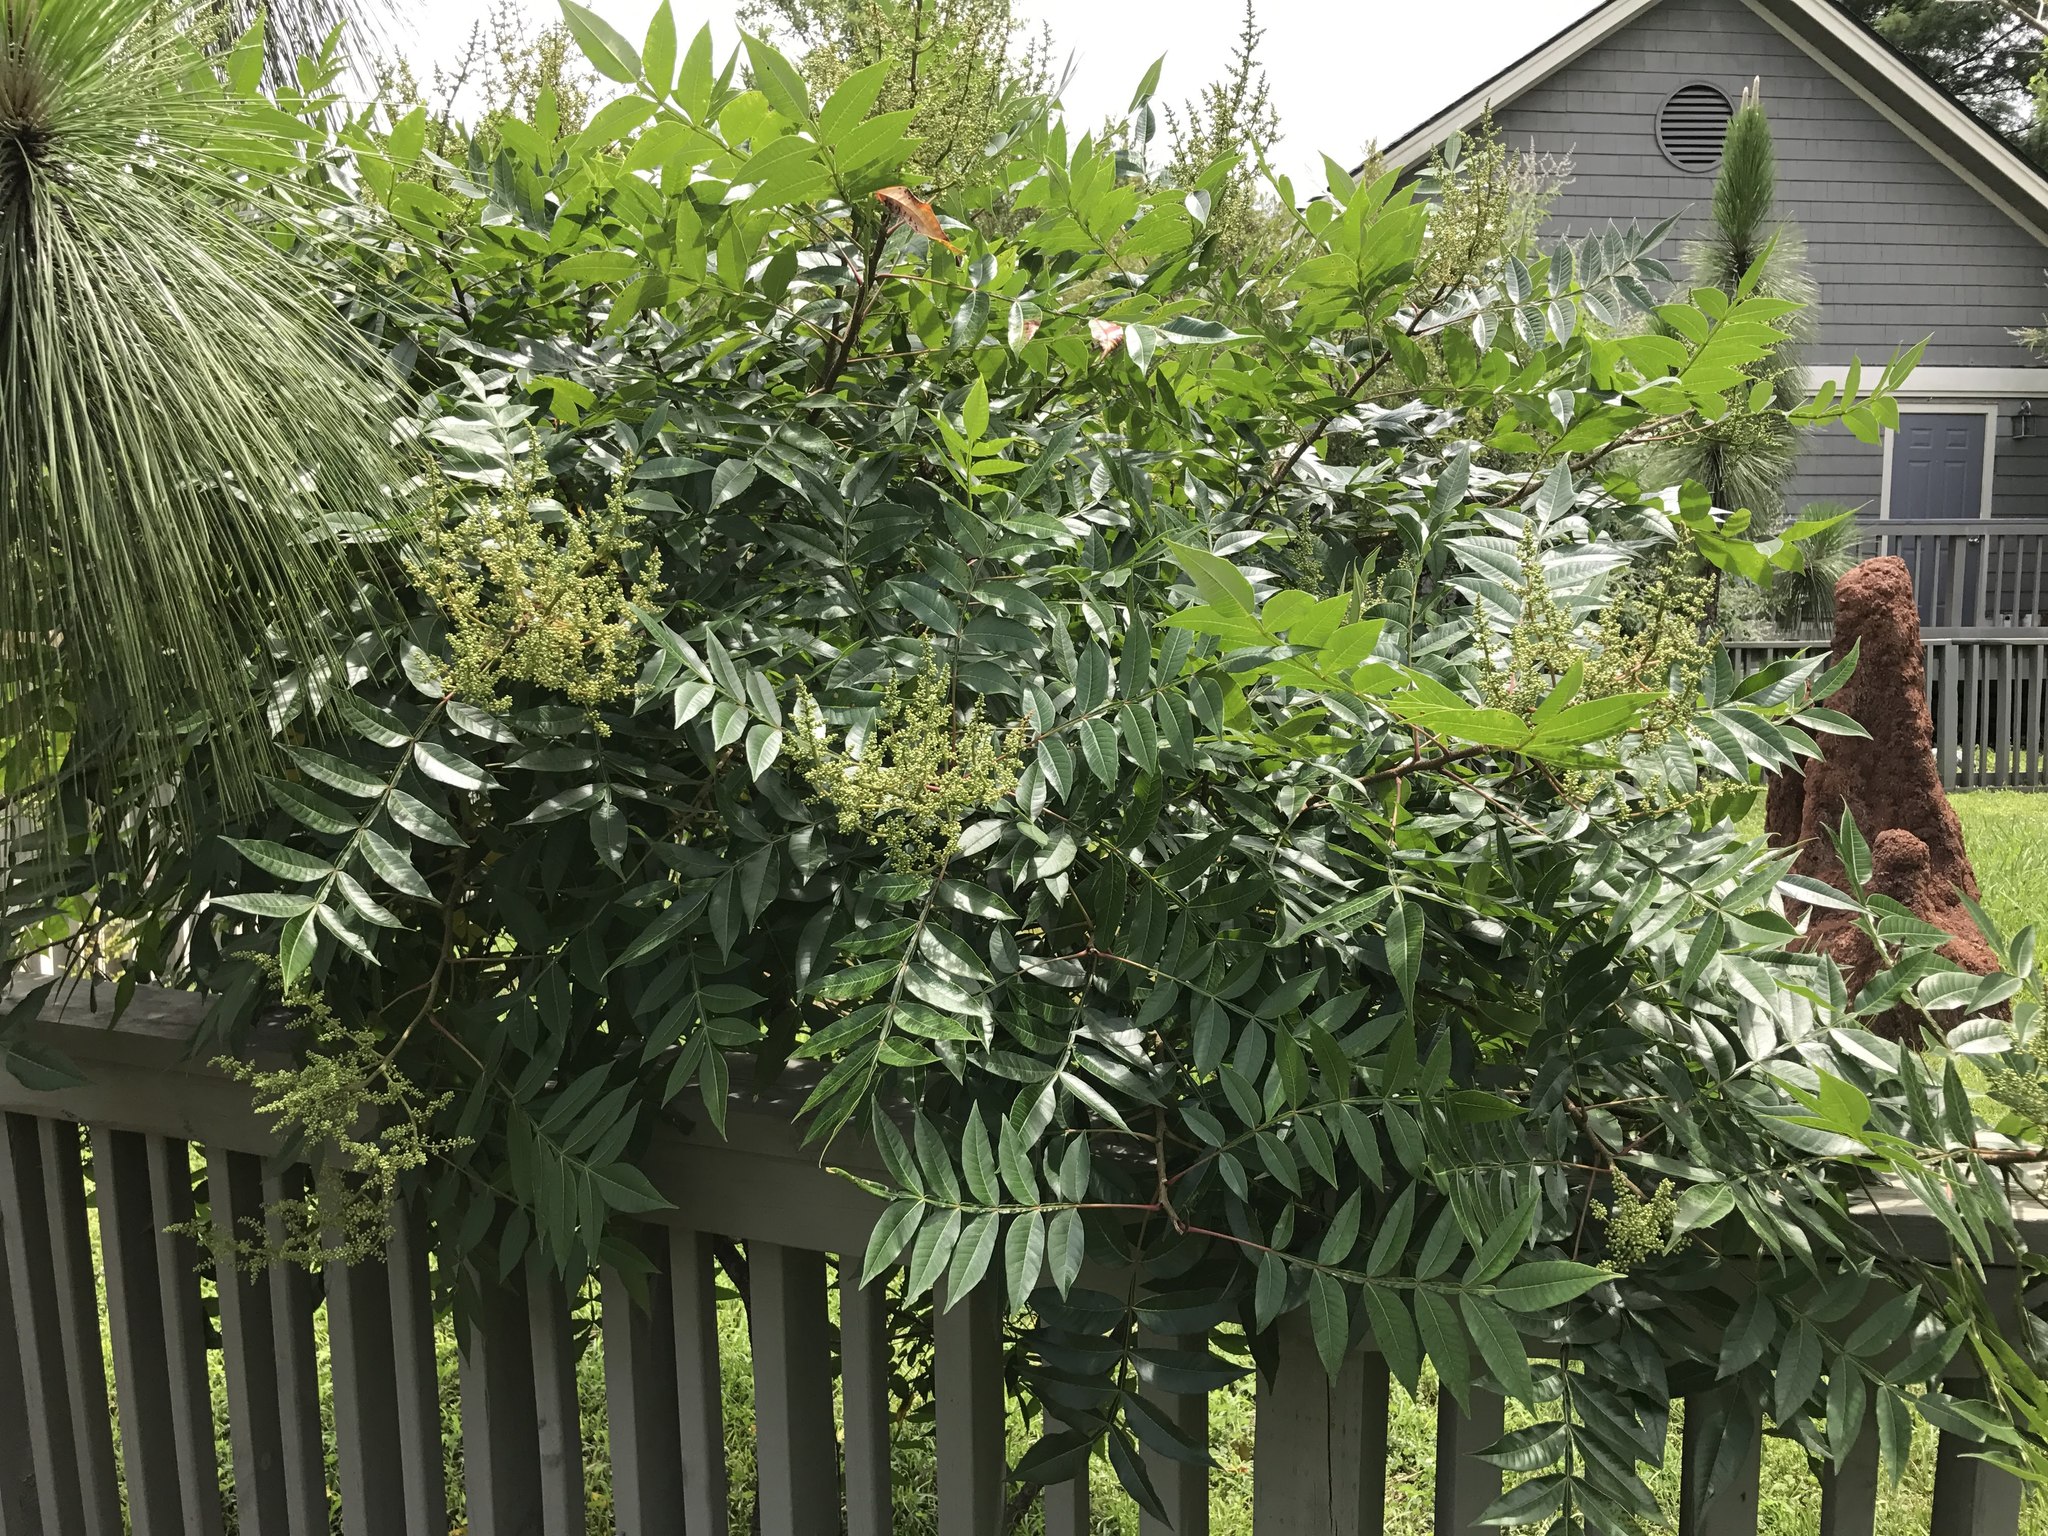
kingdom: Plantae
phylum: Tracheophyta
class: Magnoliopsida
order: Sapindales
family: Anacardiaceae
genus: Rhus
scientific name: Rhus copallina
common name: Shining sumac
